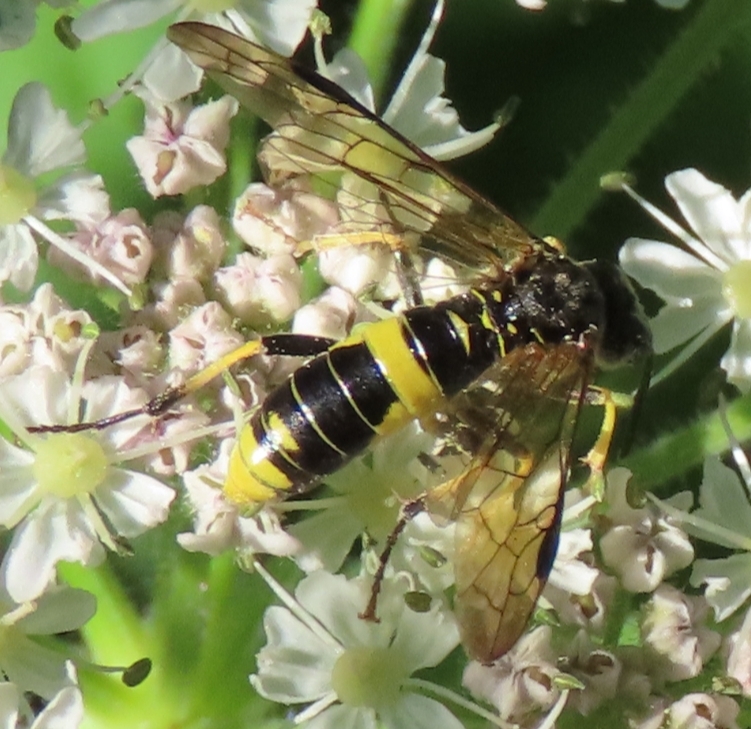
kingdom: Animalia
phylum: Arthropoda
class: Insecta
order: Hymenoptera
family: Tenthredinidae
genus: Tenthredo
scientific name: Tenthredo temula
